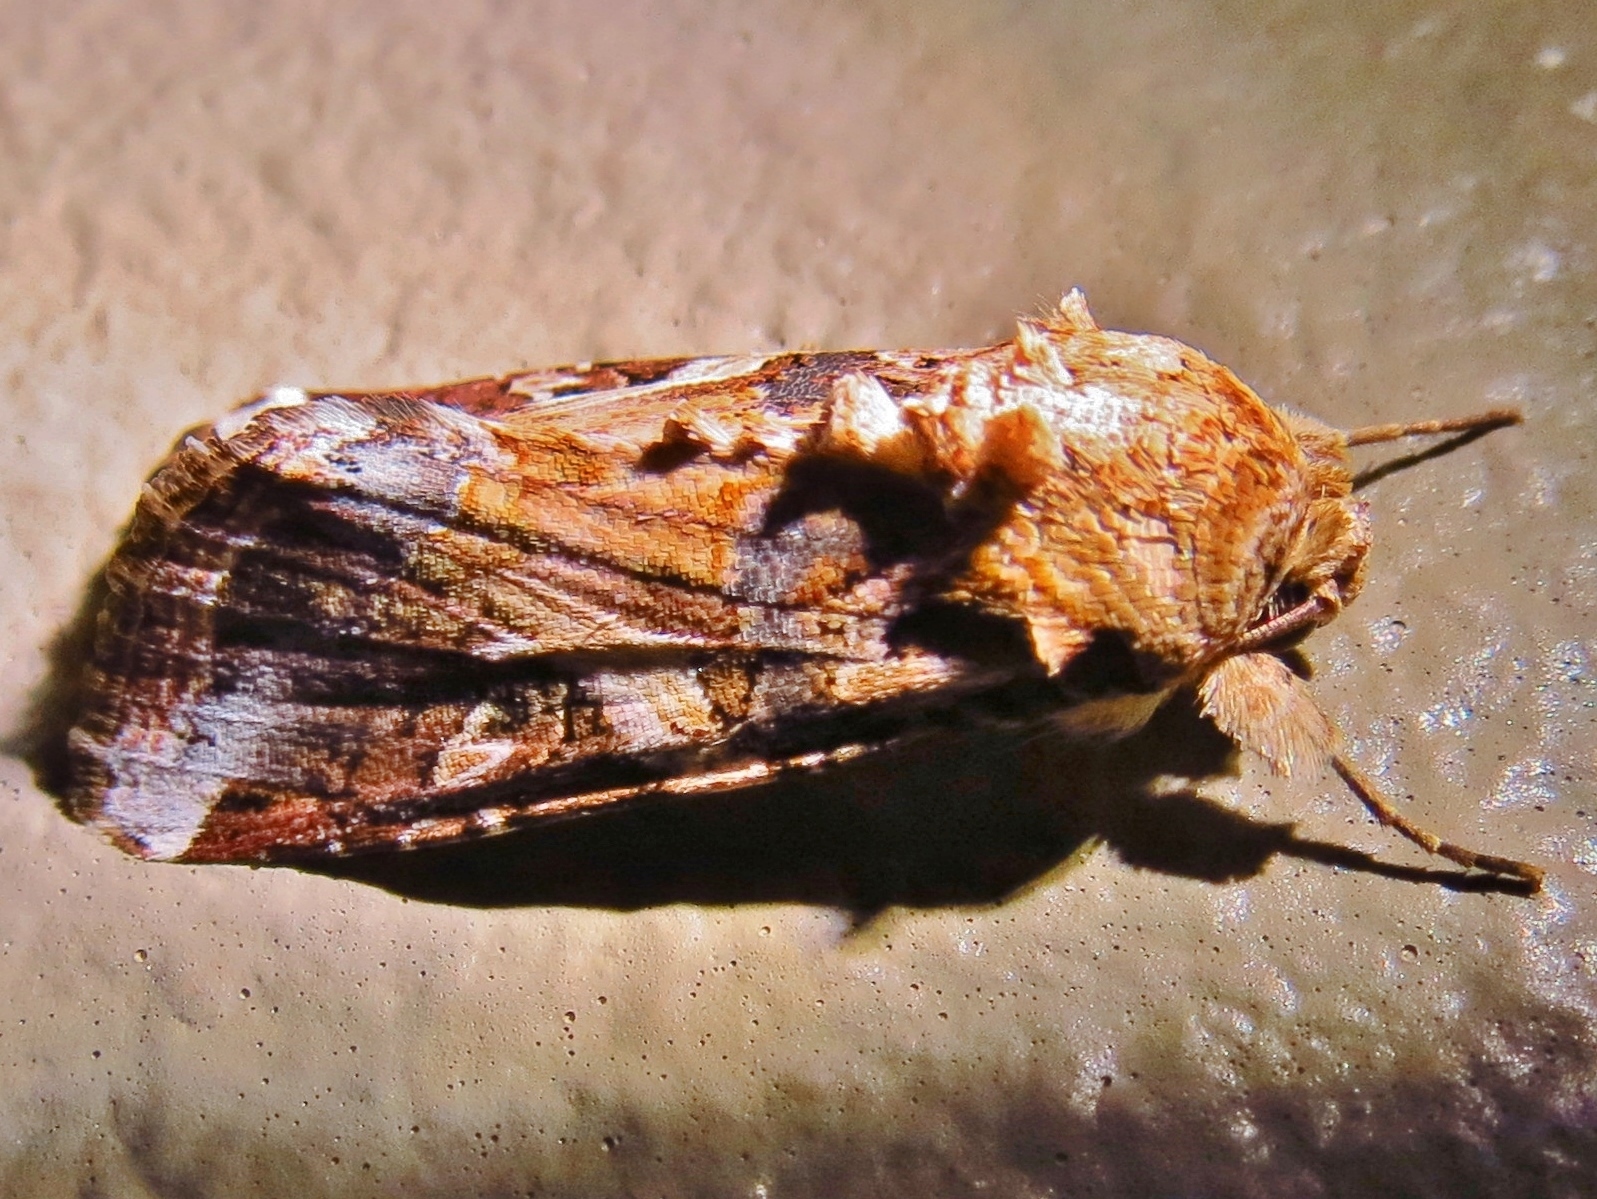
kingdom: Animalia
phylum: Arthropoda
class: Insecta
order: Lepidoptera
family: Noctuidae
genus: Spodoptera
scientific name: Spodoptera ornithogalli
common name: Yellow-striped armyworm
